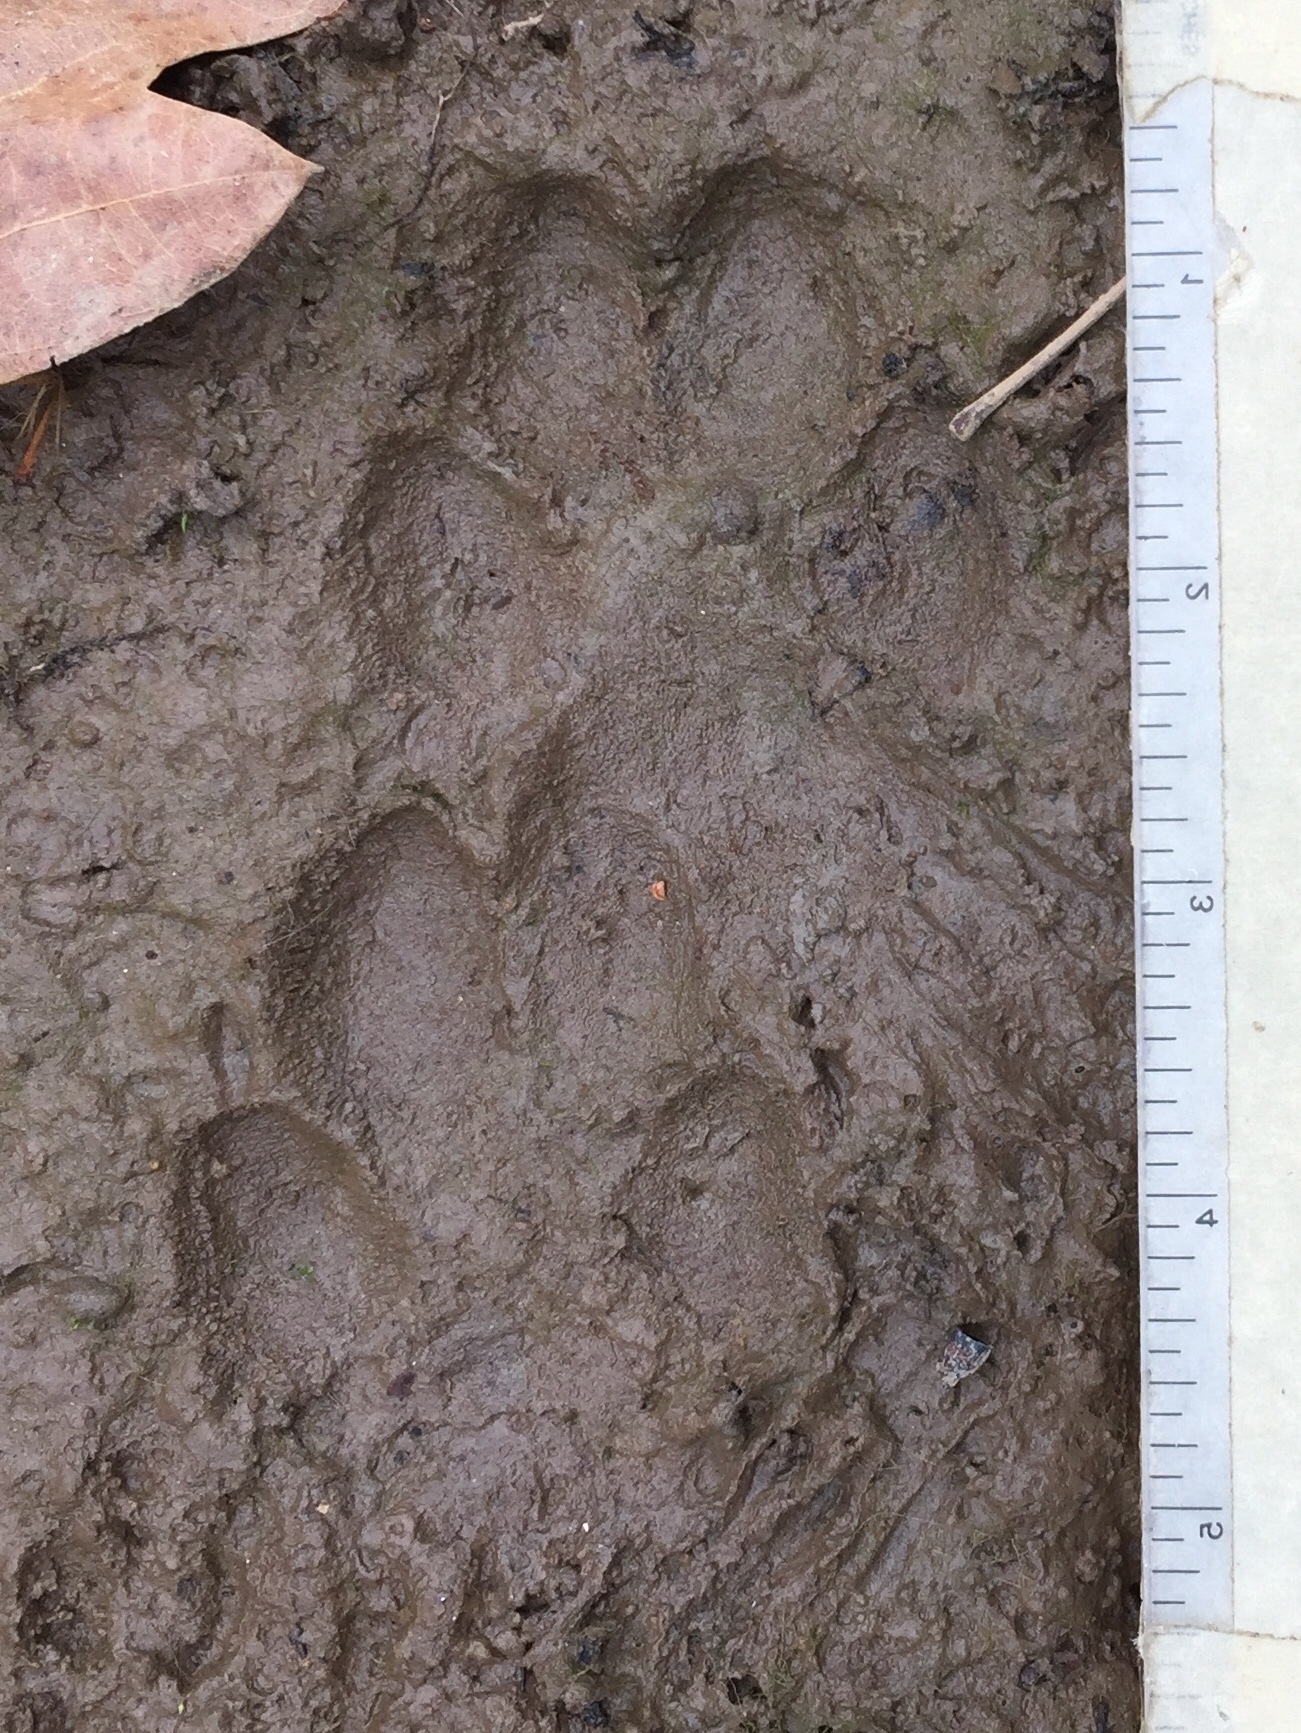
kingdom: Animalia
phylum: Chordata
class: Mammalia
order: Carnivora
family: Canidae
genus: Canis
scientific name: Canis latrans
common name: Coyote
